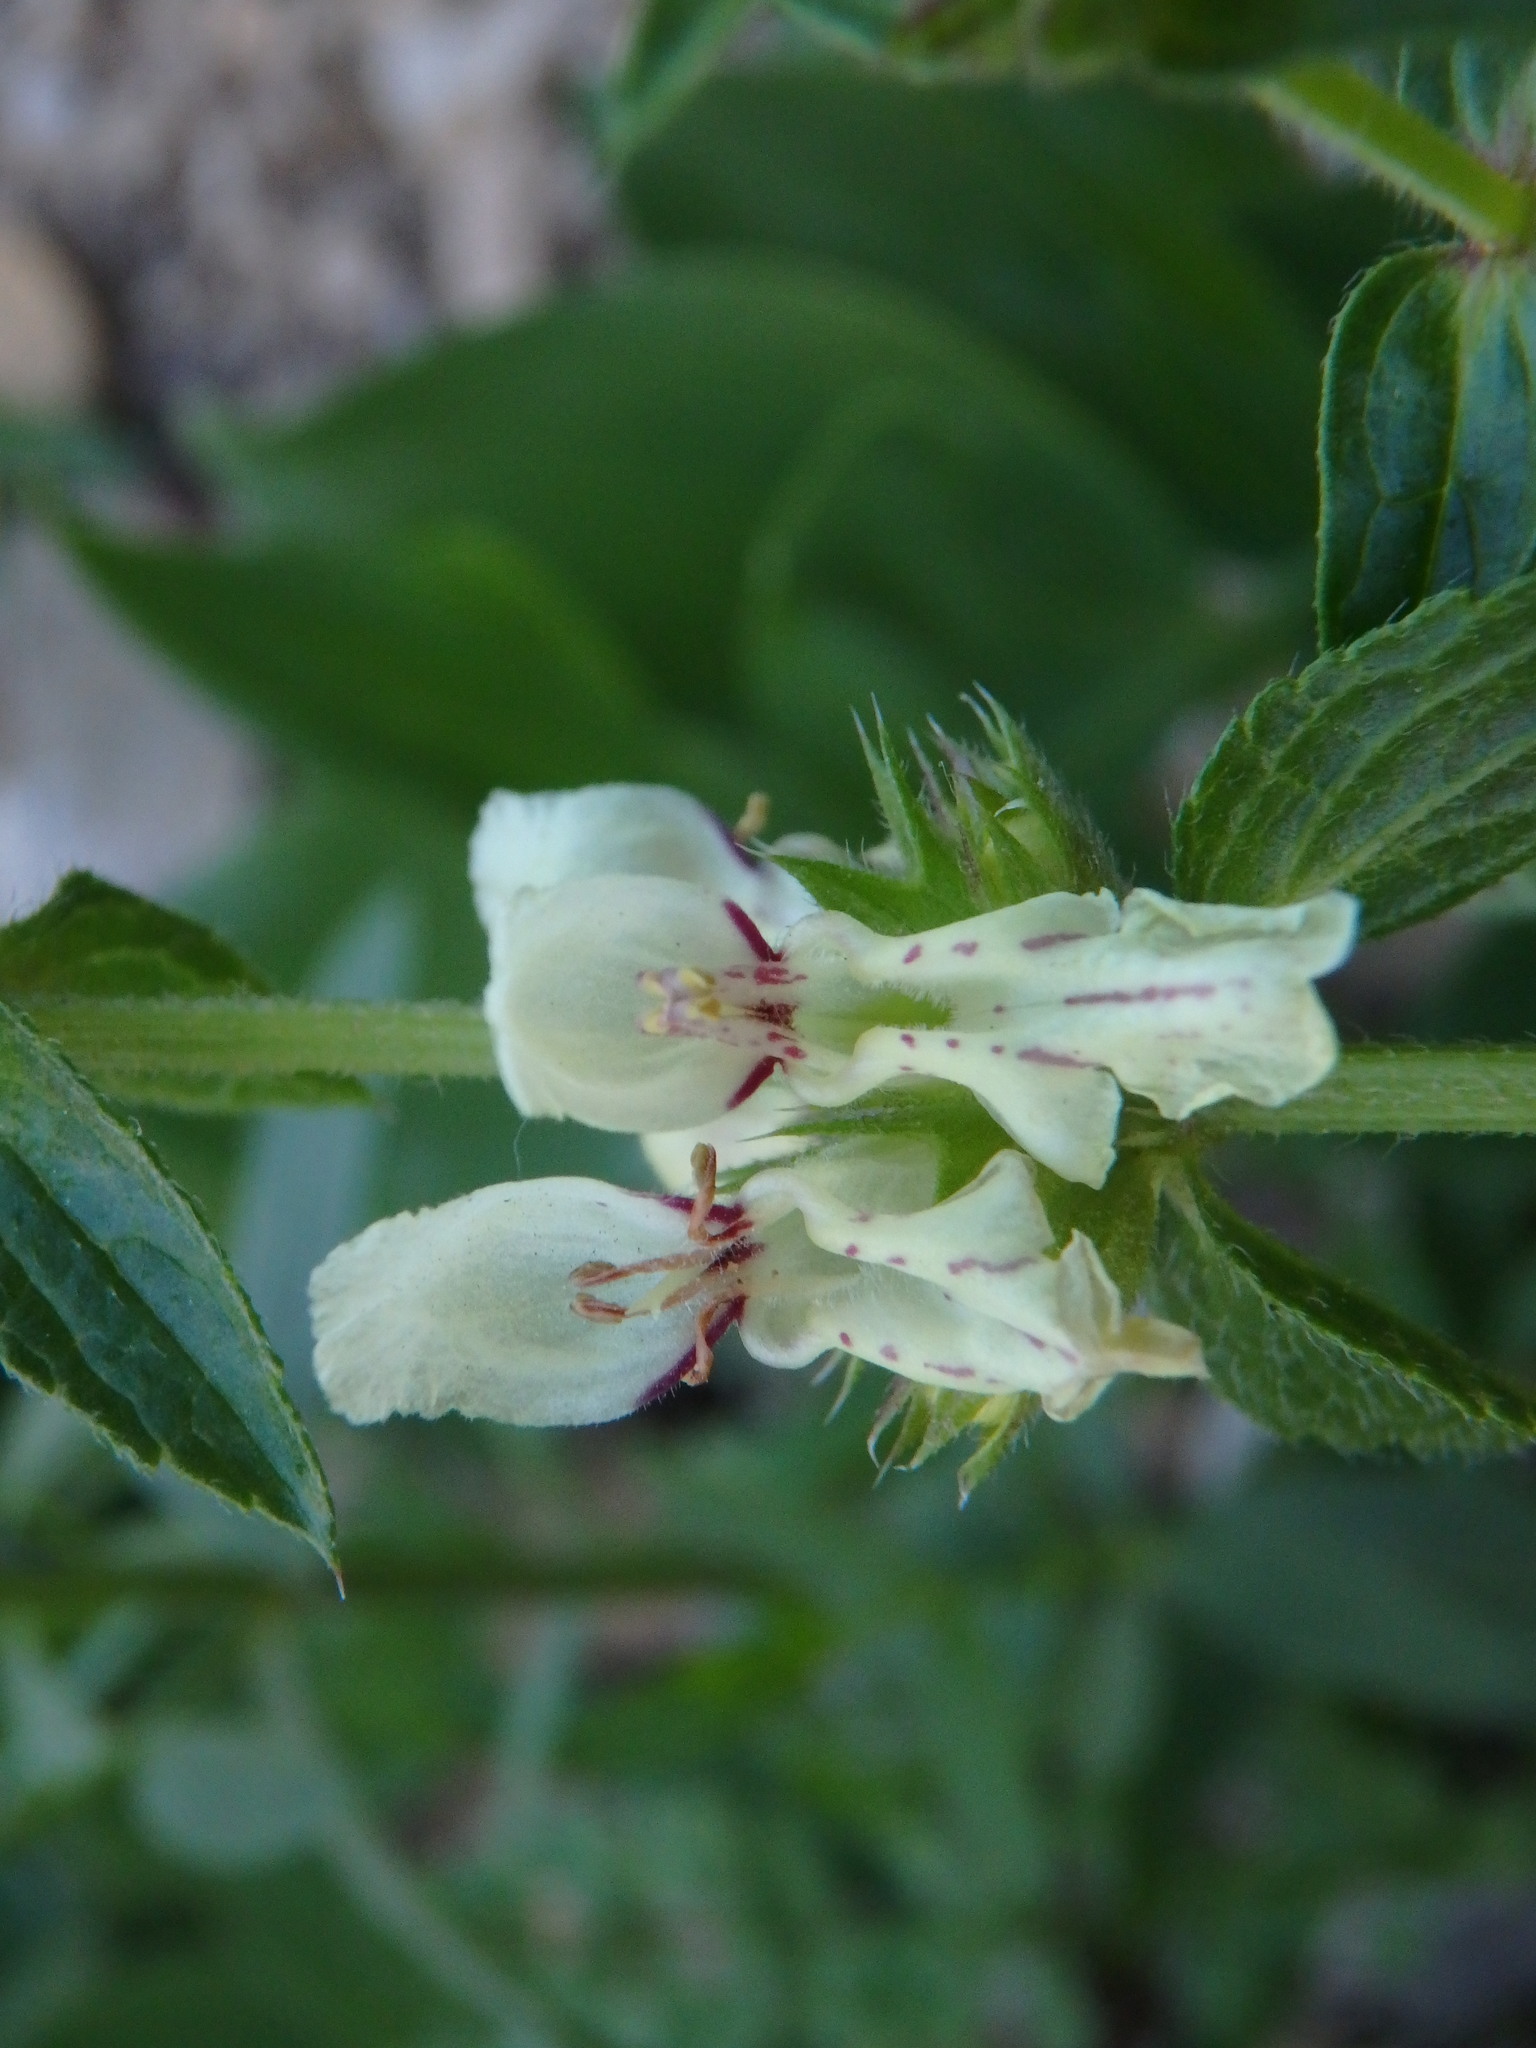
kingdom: Plantae
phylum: Tracheophyta
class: Magnoliopsida
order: Lamiales
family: Lamiaceae
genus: Stachys
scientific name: Stachys recta
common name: Perennial yellow-woundwort
